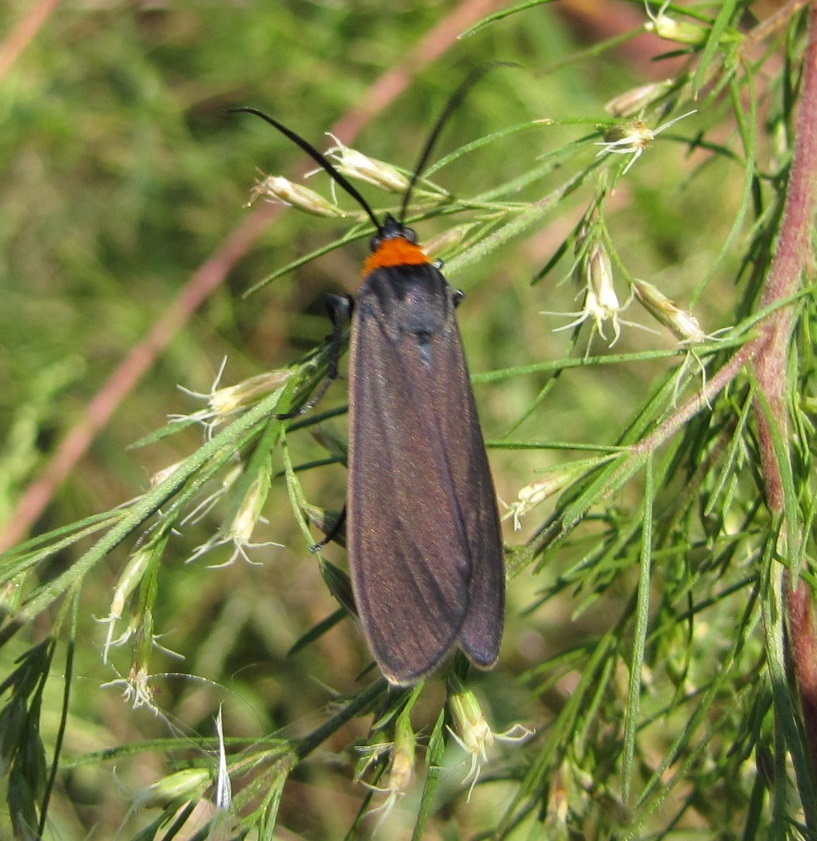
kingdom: Animalia
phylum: Arthropoda
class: Insecta
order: Lepidoptera
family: Erebidae
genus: Cisseps
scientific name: Cisseps fulvicollis
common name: Yellow-collared scape moth
